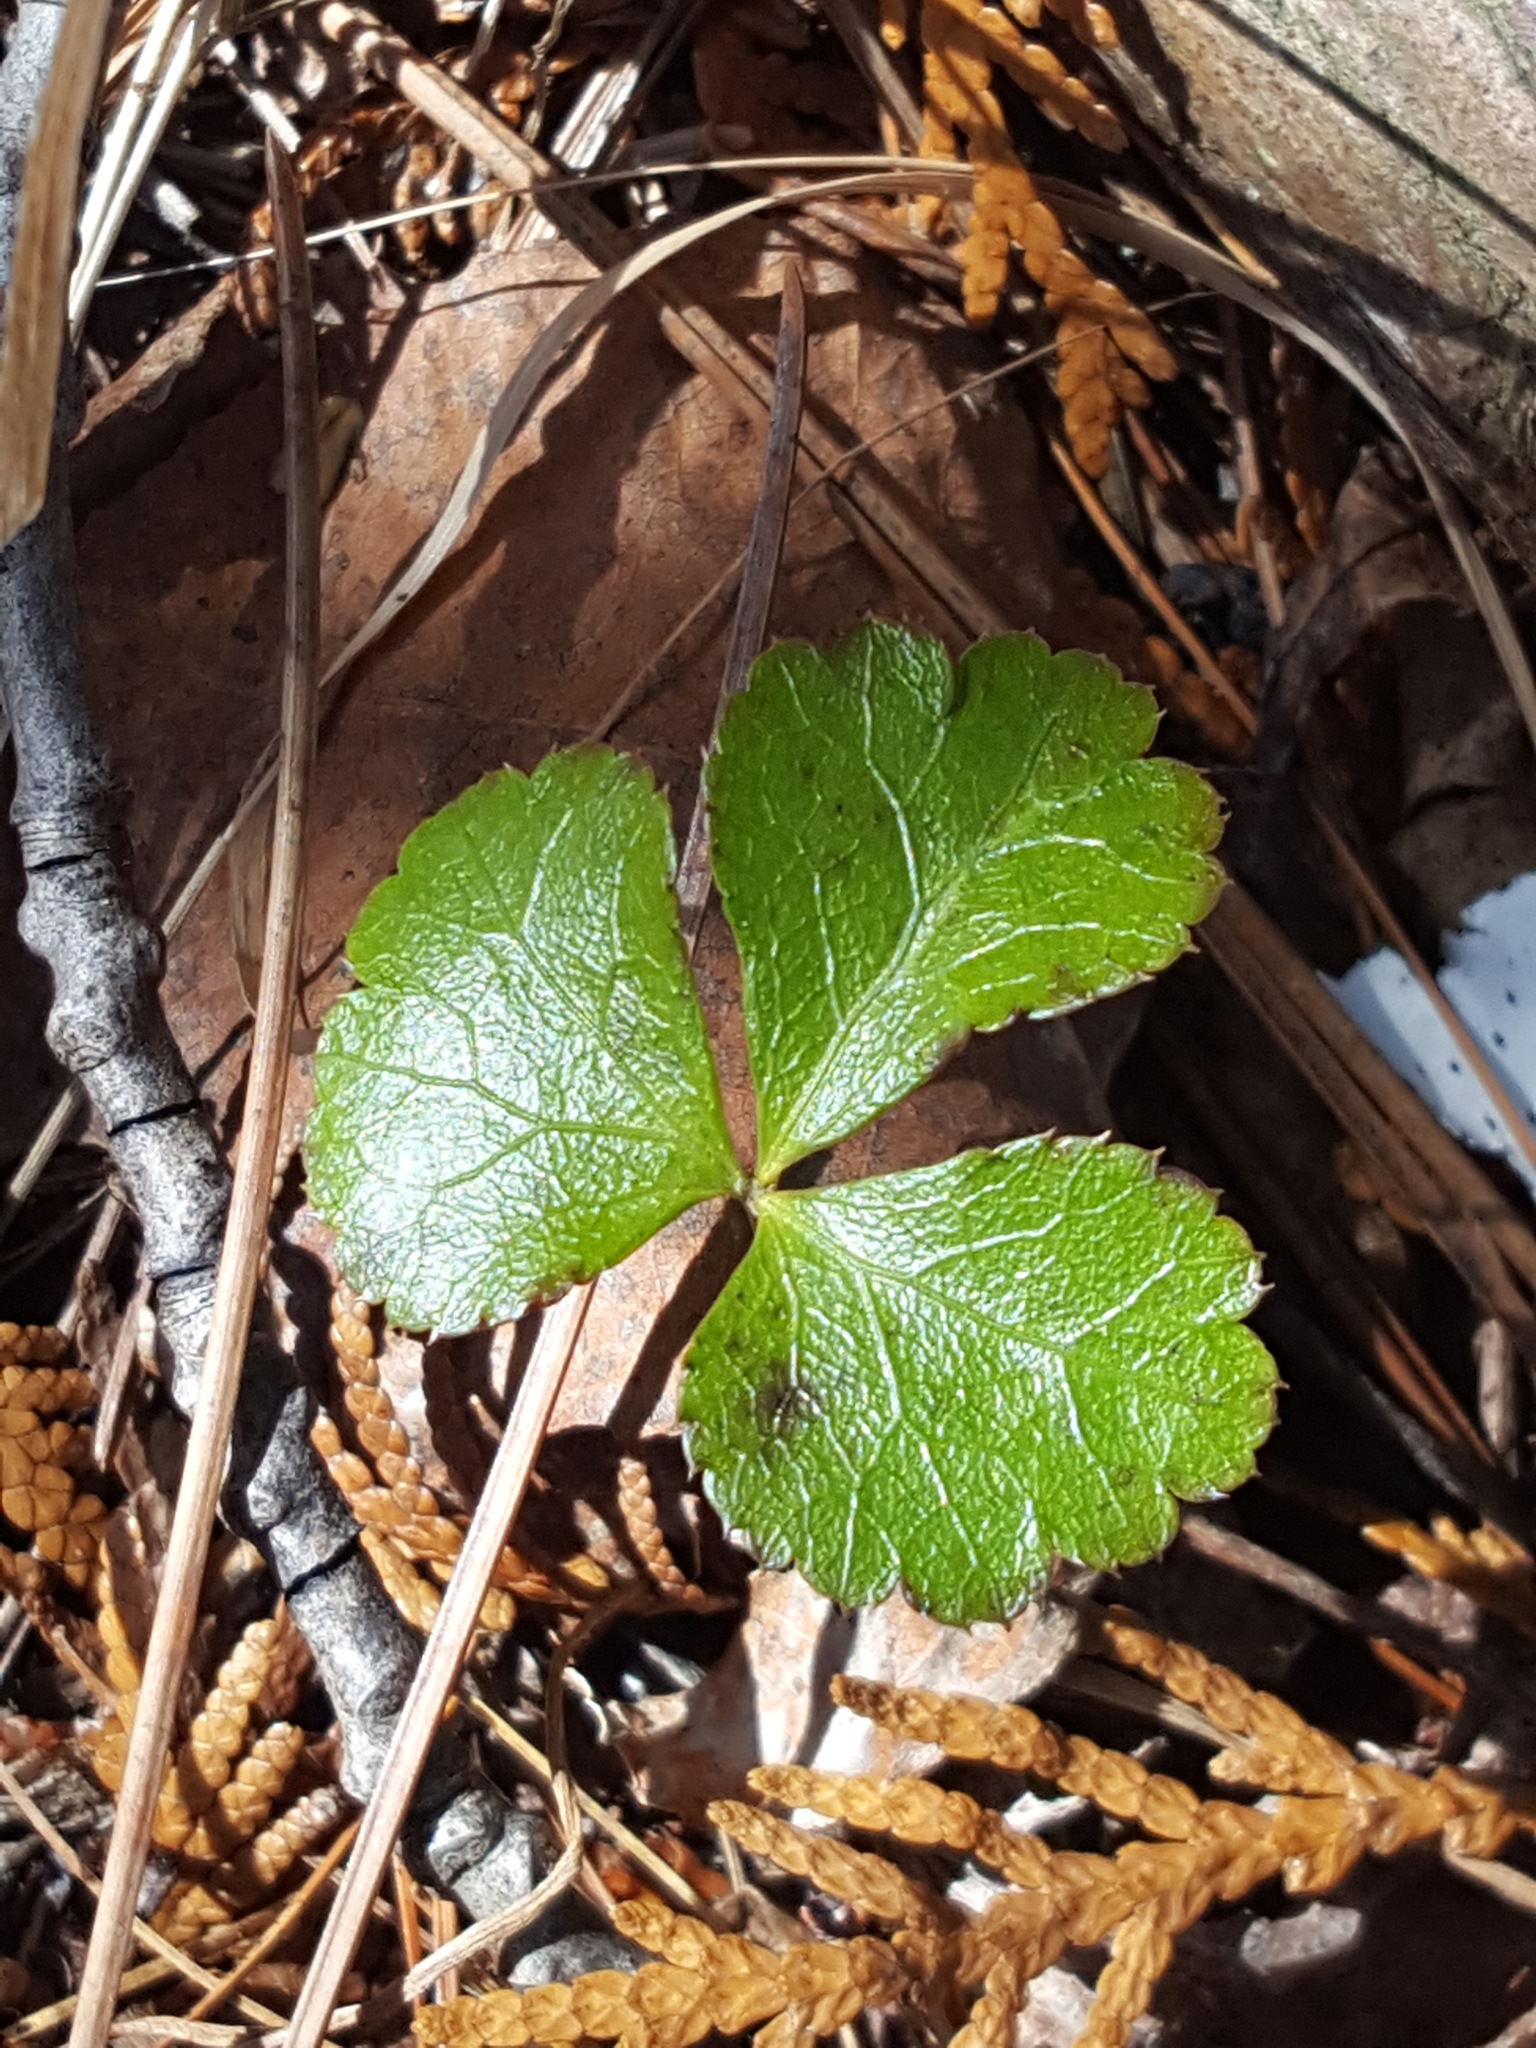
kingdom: Plantae
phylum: Tracheophyta
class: Magnoliopsida
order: Ranunculales
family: Ranunculaceae
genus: Coptis
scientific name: Coptis trifolia
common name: Canker-root
